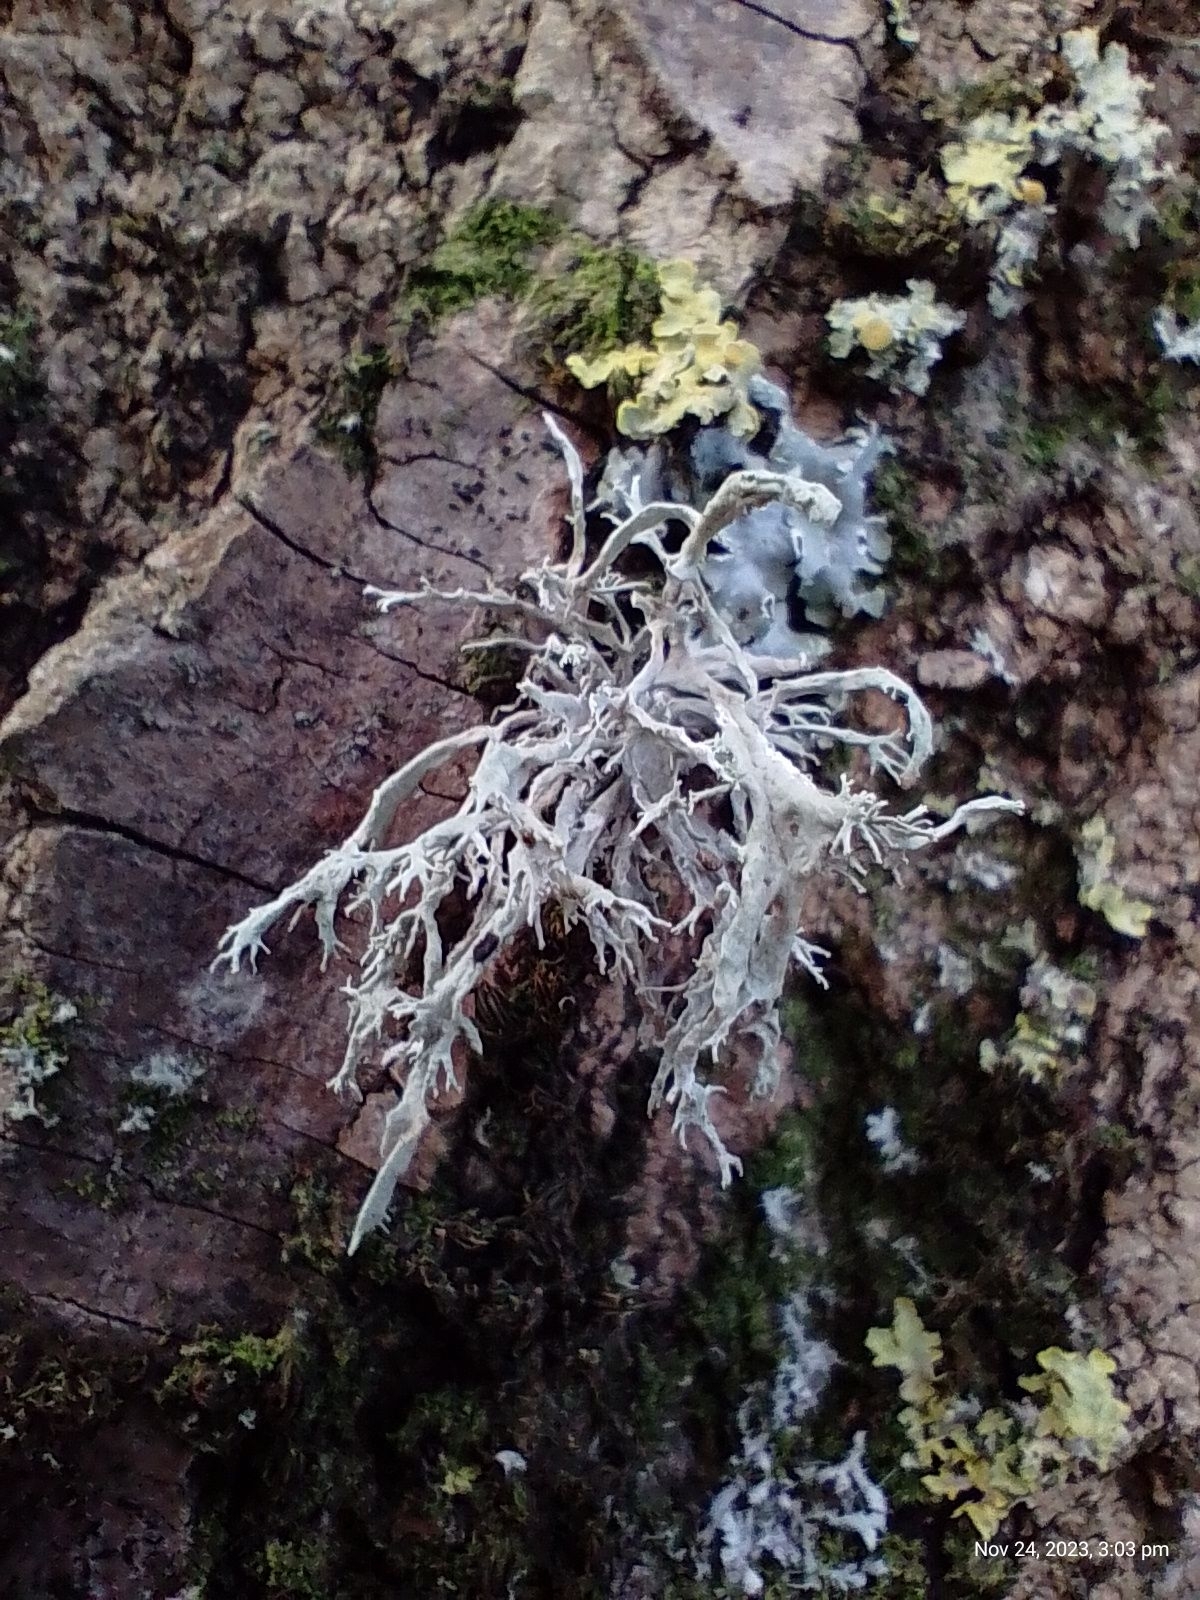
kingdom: Fungi
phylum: Ascomycota
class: Lecanoromycetes
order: Lecanorales
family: Ramalinaceae
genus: Ramalina
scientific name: Ramalina farinacea
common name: Farinose cartilage lichen
